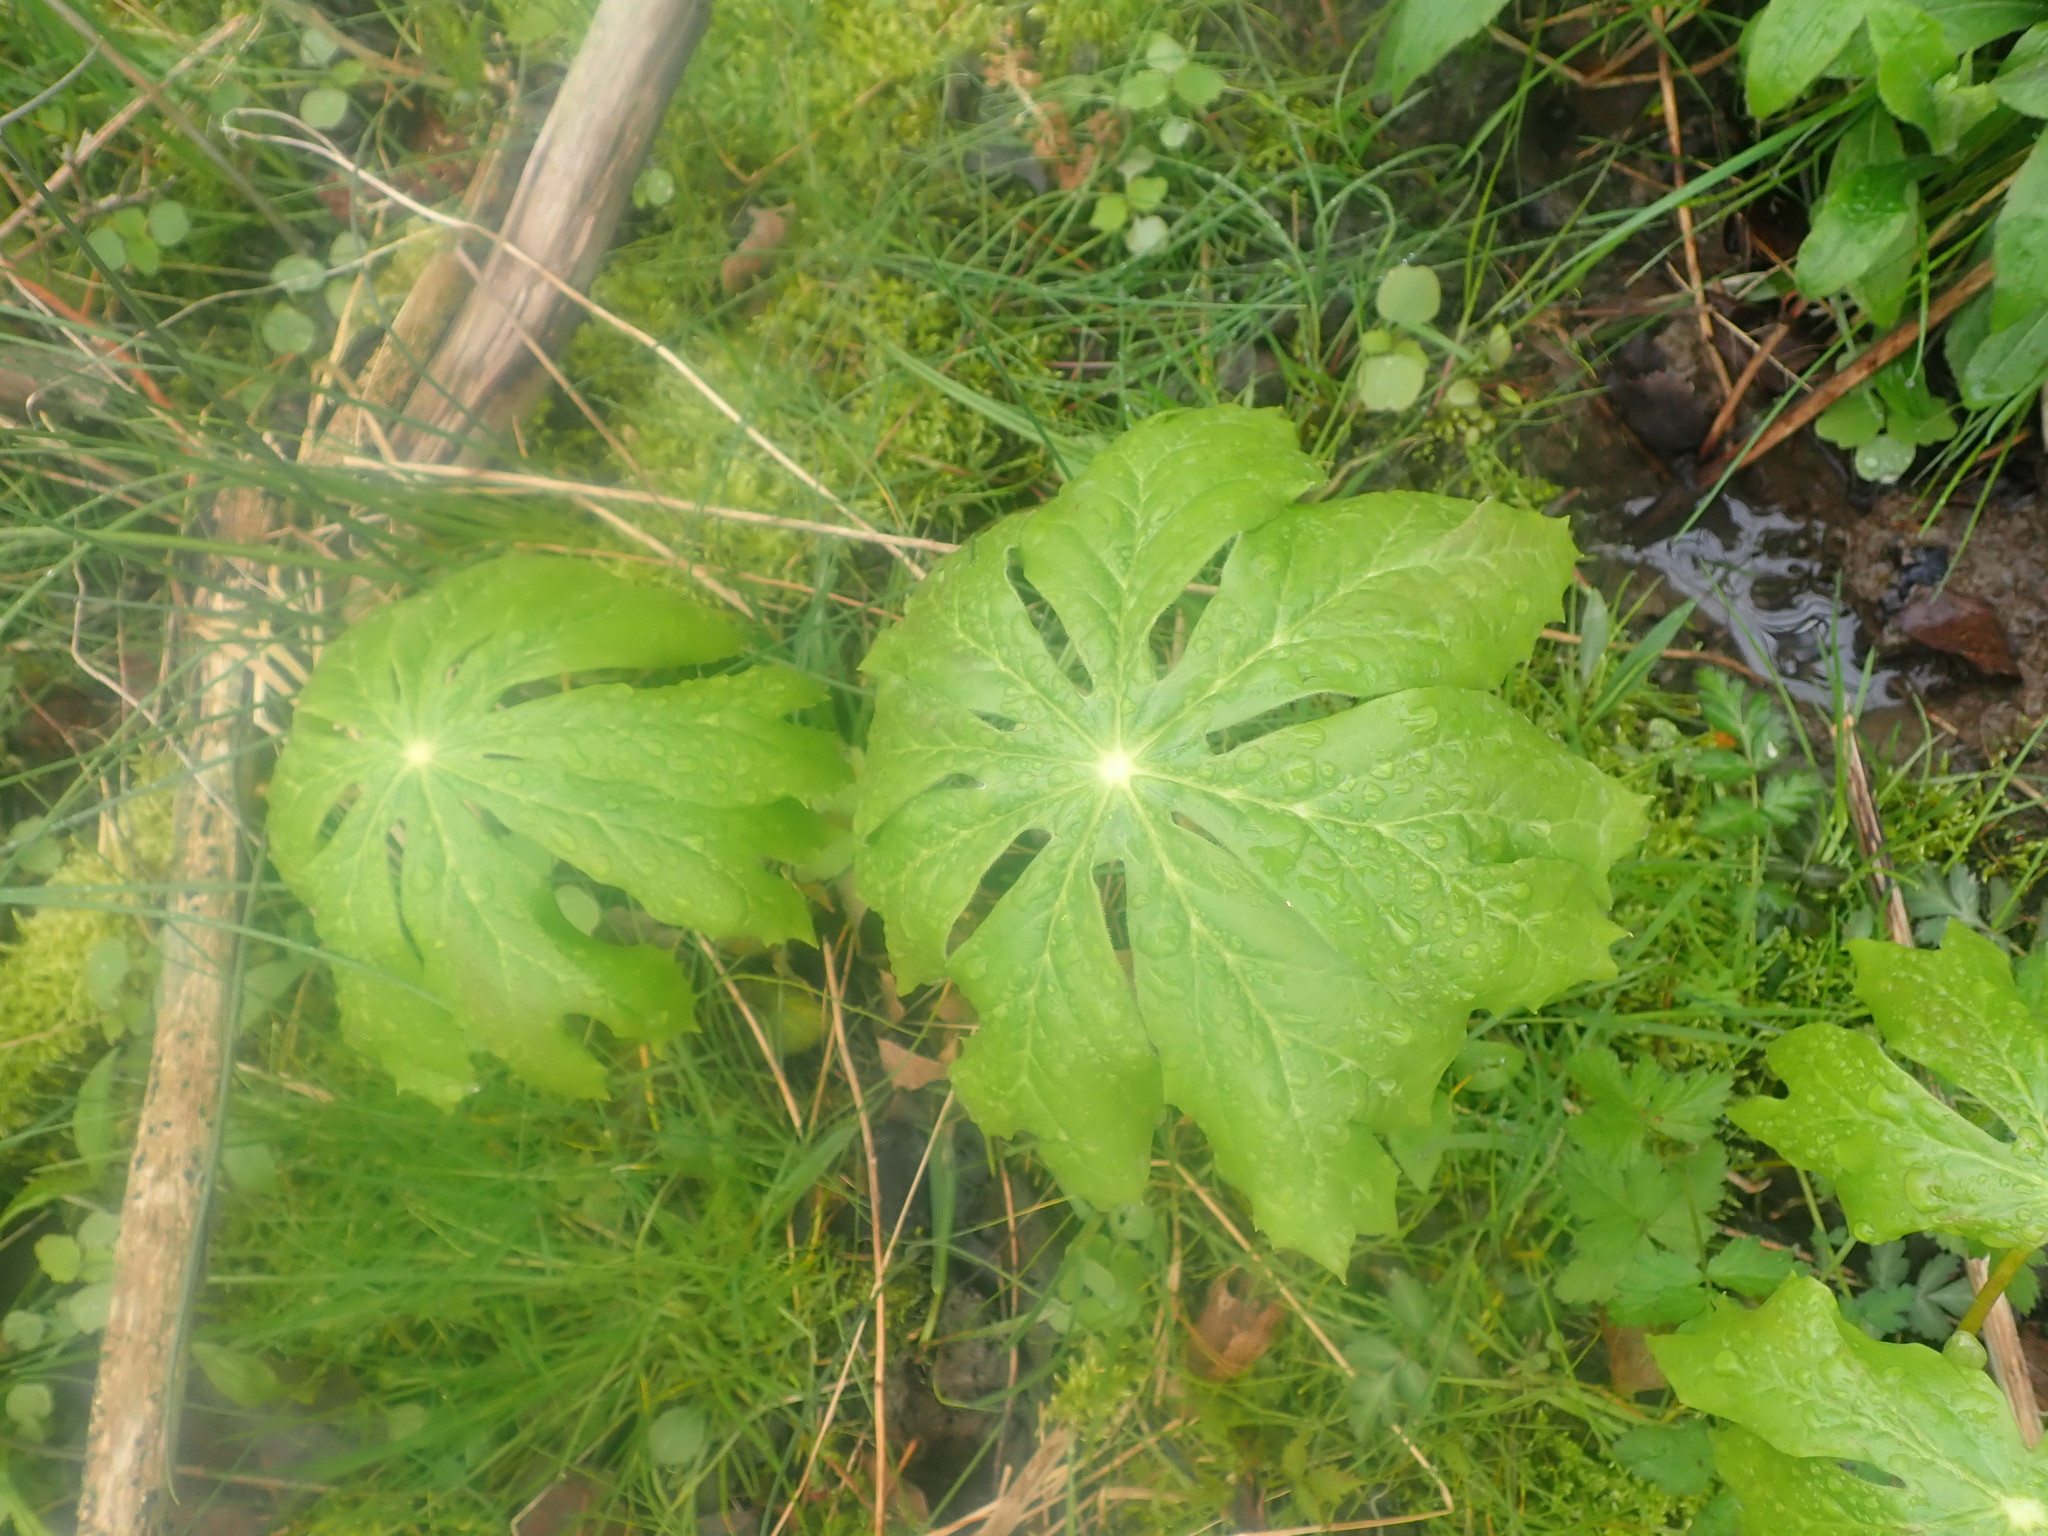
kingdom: Plantae
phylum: Tracheophyta
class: Magnoliopsida
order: Ranunculales
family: Berberidaceae
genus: Podophyllum
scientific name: Podophyllum peltatum
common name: Wild mandrake
